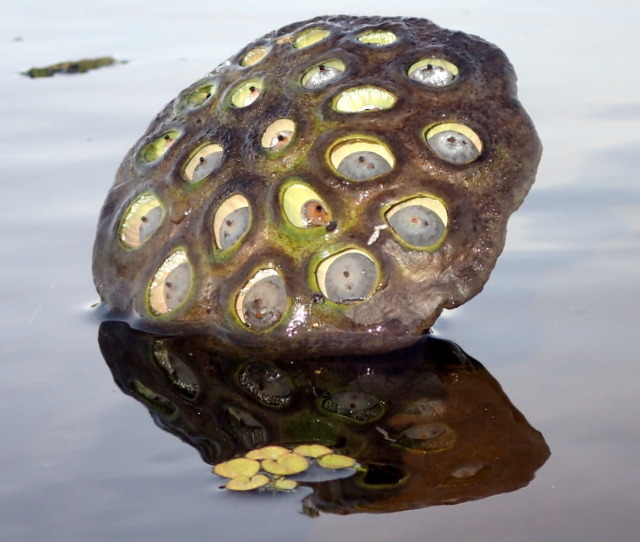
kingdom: Plantae
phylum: Tracheophyta
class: Magnoliopsida
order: Proteales
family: Nelumbonaceae
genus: Nelumbo
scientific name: Nelumbo lutea
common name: American lotus
